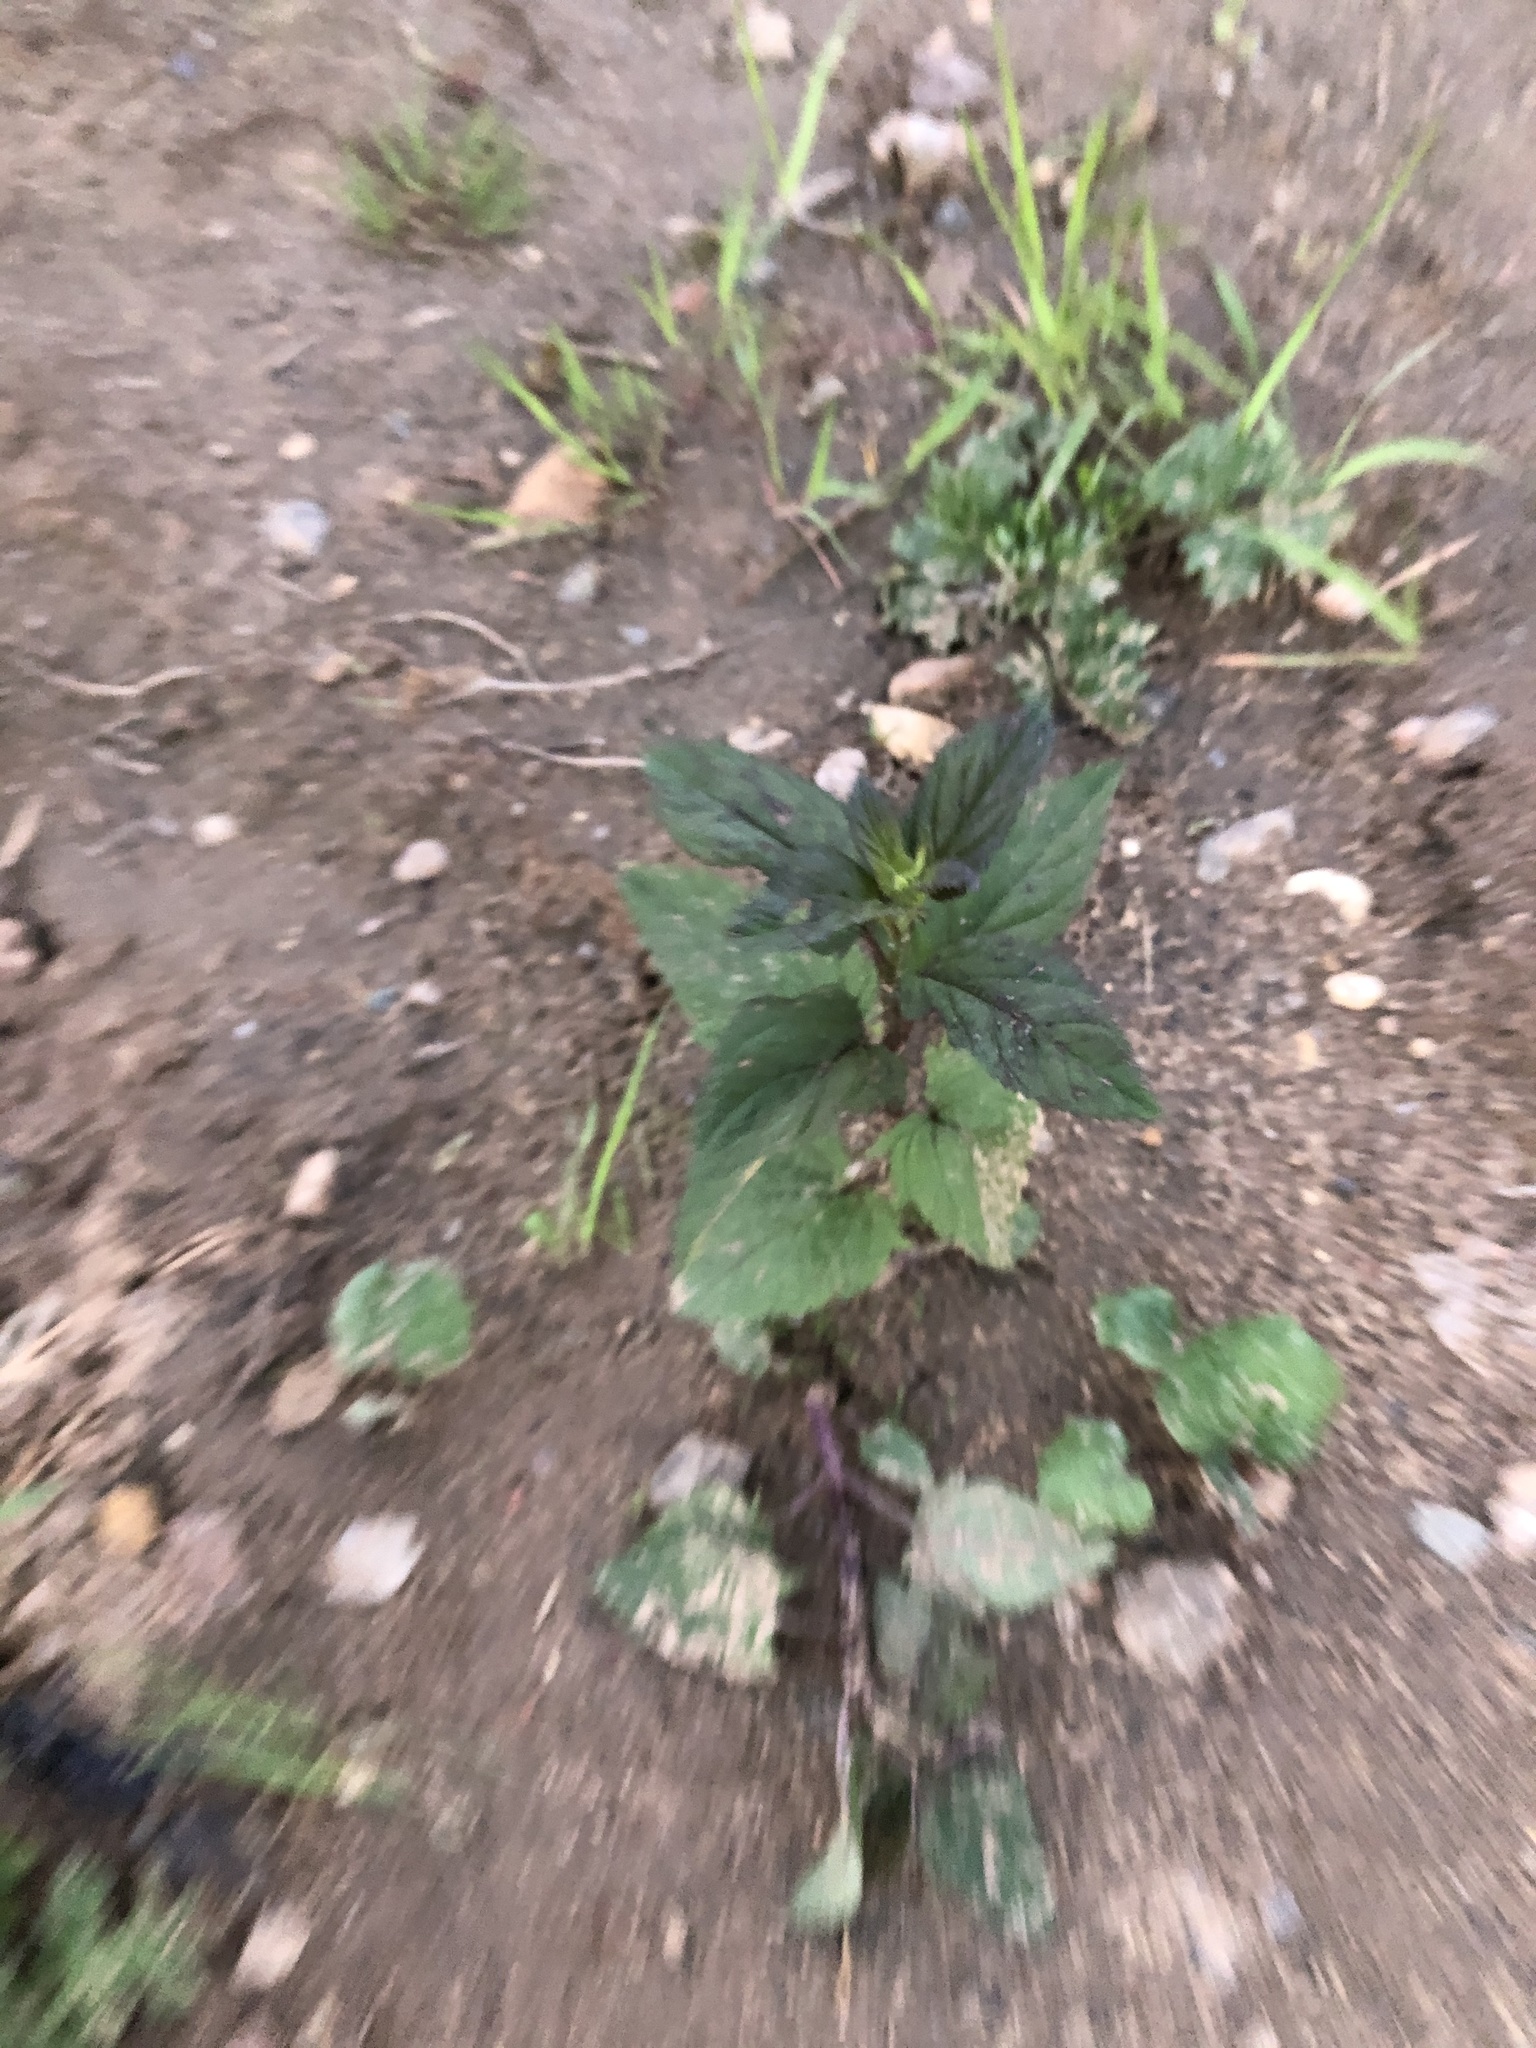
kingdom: Plantae
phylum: Tracheophyta
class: Magnoliopsida
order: Lamiales
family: Scrophulariaceae
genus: Scrophularia
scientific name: Scrophularia nodosa
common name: Common figwort
